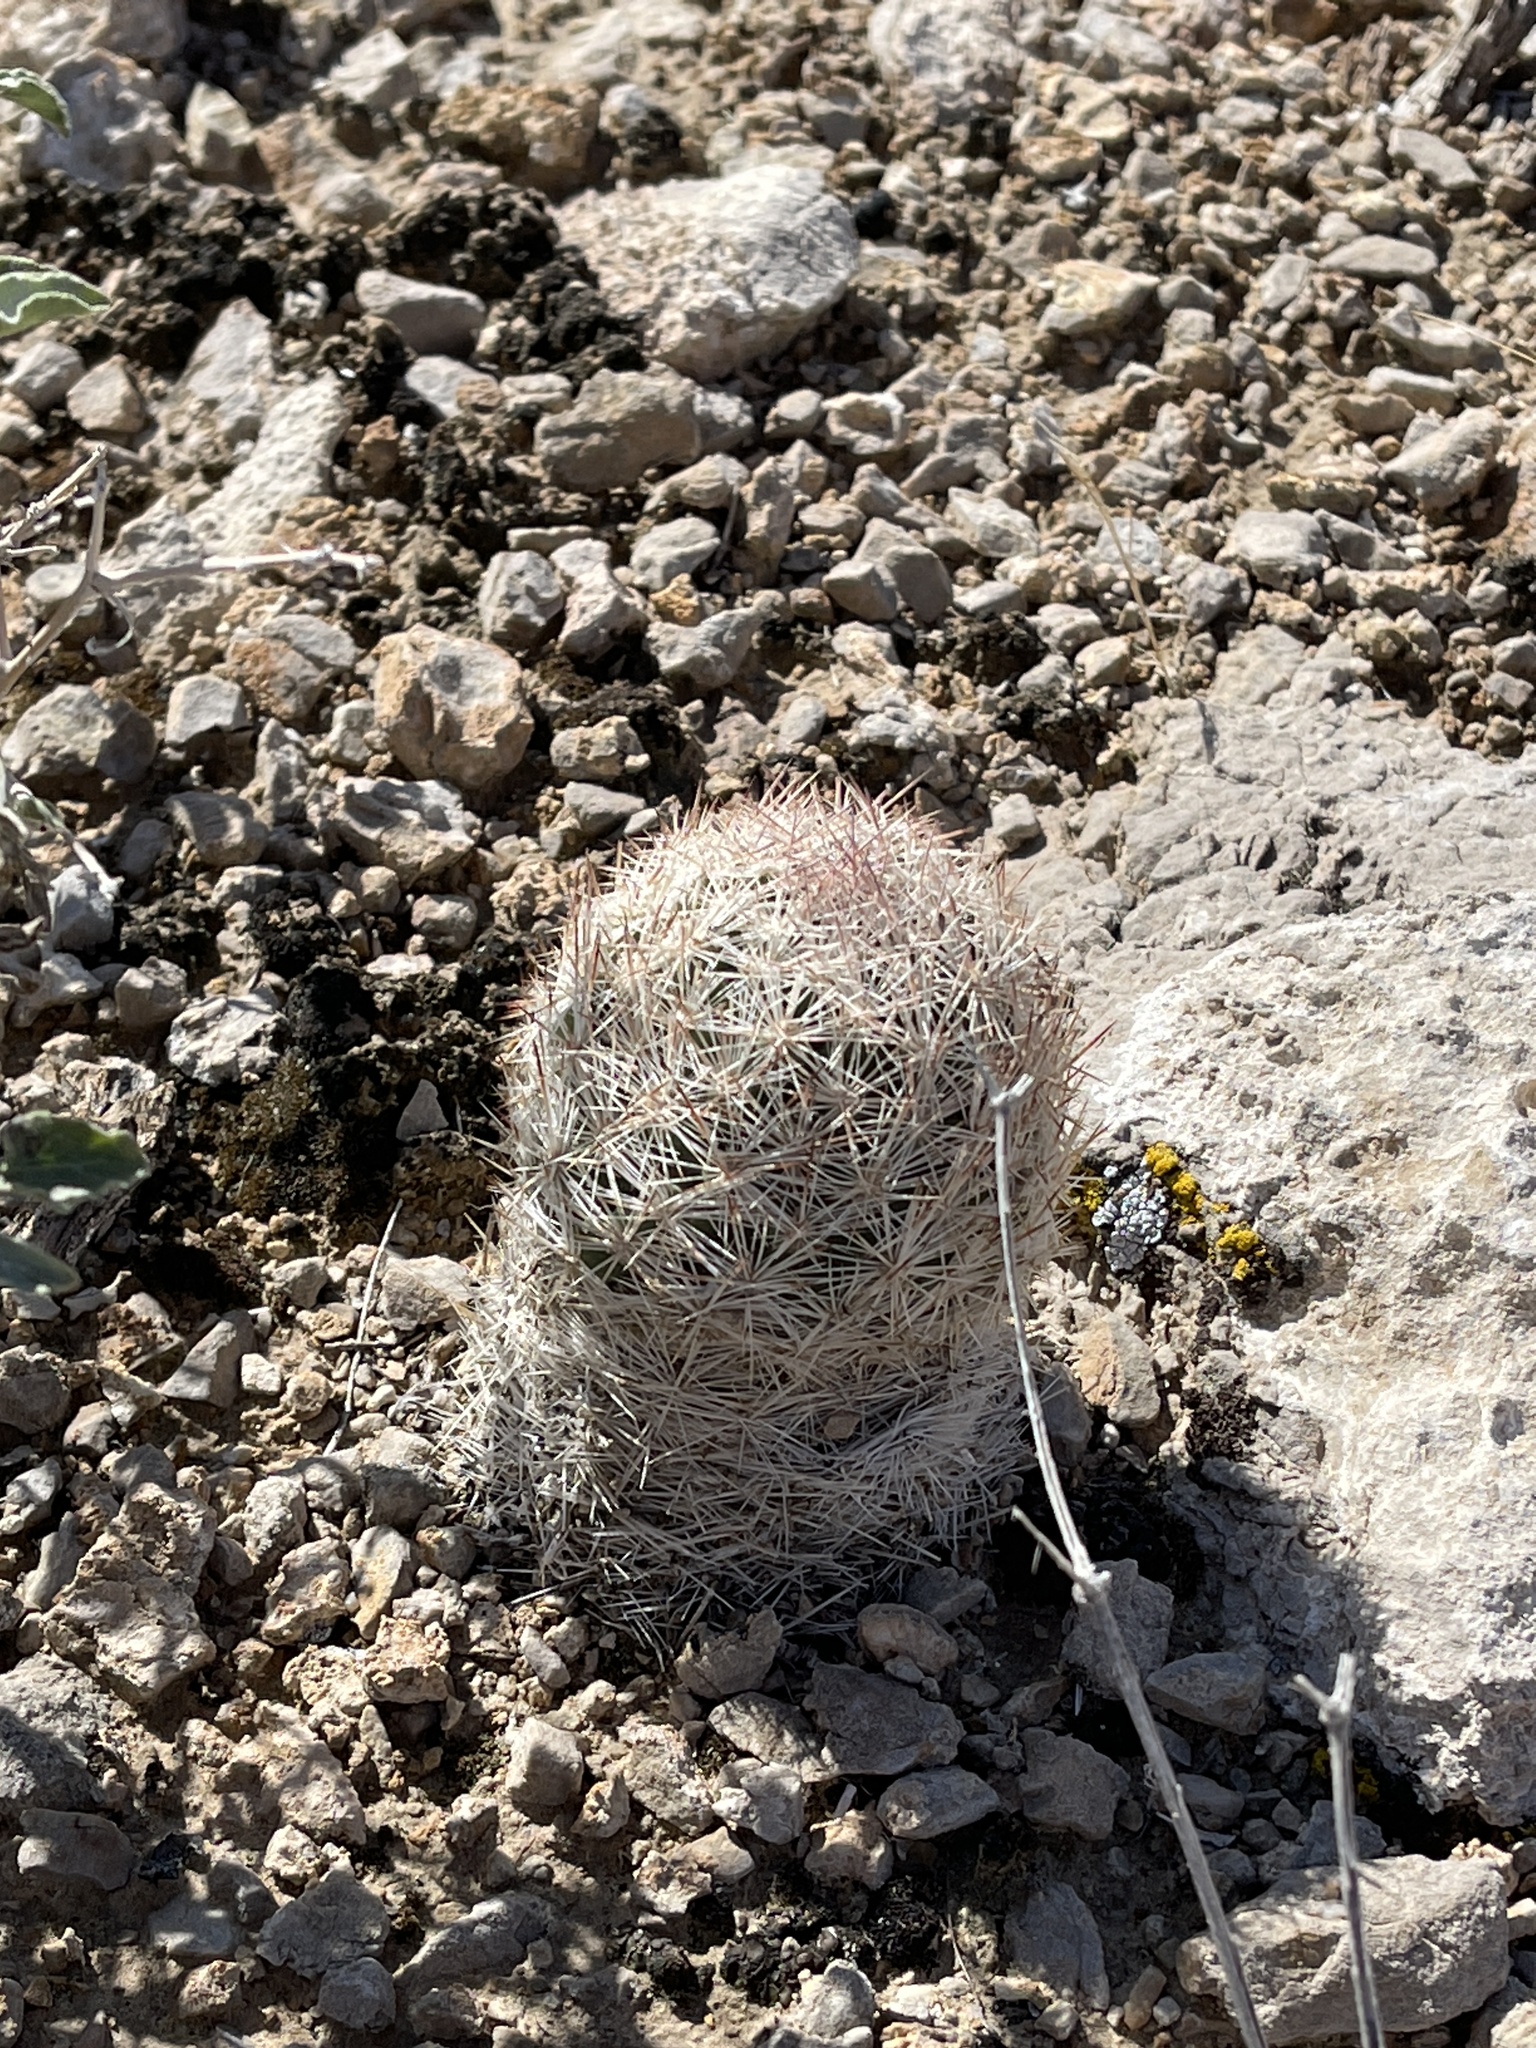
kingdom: Plantae
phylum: Tracheophyta
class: Magnoliopsida
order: Caryophyllales
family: Cactaceae
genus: Pelecyphora
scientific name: Pelecyphora dasyacantha
